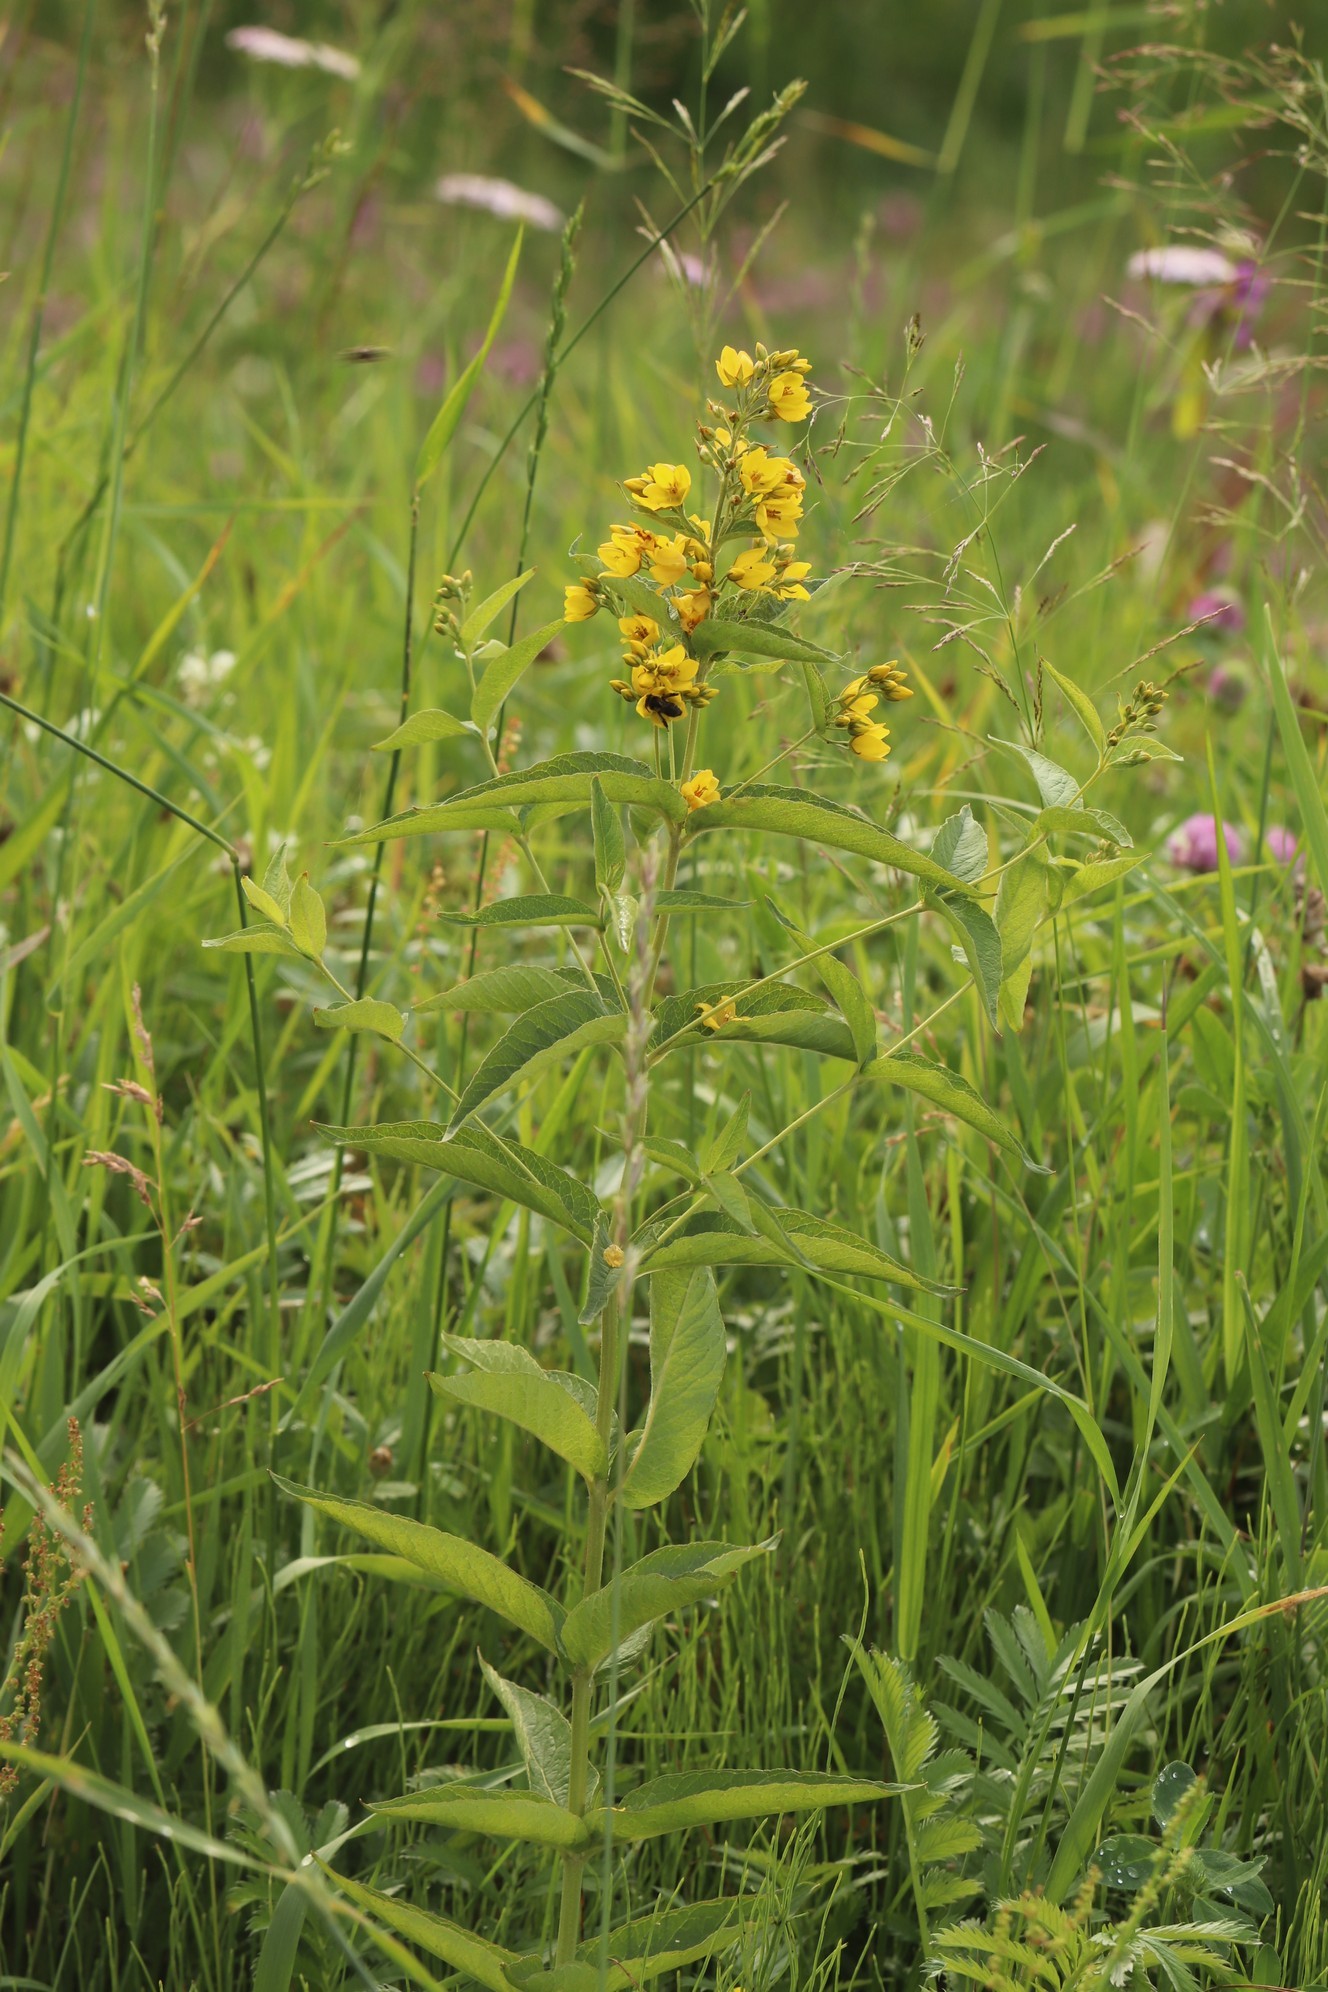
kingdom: Plantae
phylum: Tracheophyta
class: Magnoliopsida
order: Ericales
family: Primulaceae
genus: Lysimachia
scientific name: Lysimachia vulgaris
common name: Yellow loosestrife
